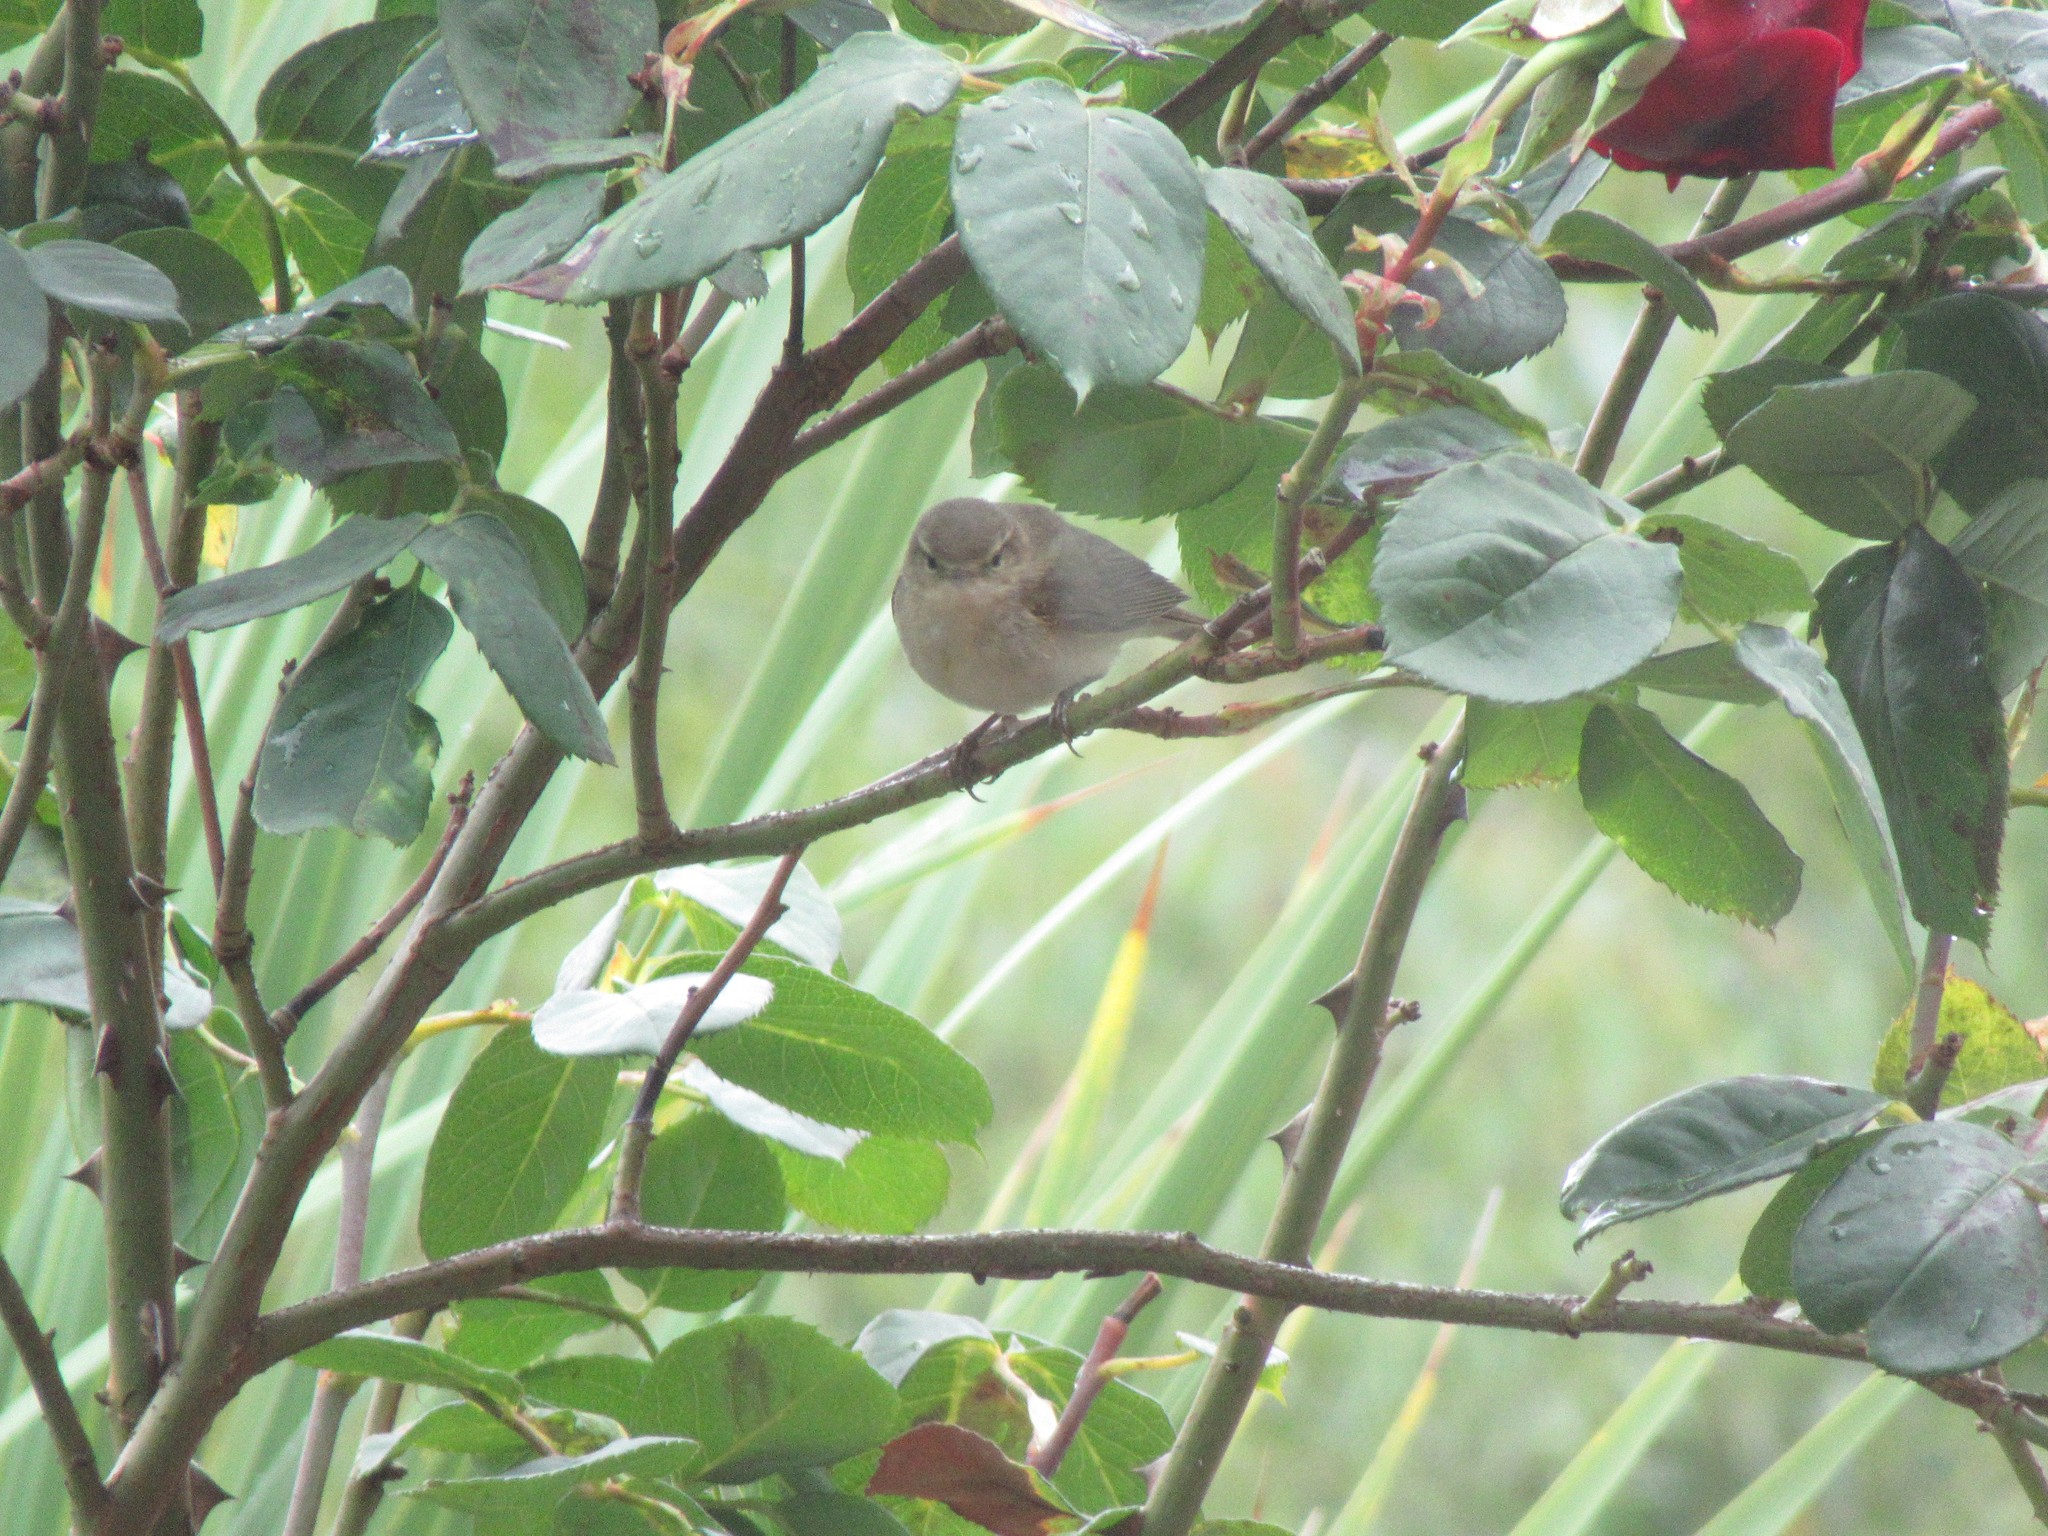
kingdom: Animalia
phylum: Chordata
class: Aves
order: Passeriformes
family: Phylloscopidae
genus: Phylloscopus
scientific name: Phylloscopus collybita
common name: Common chiffchaff
